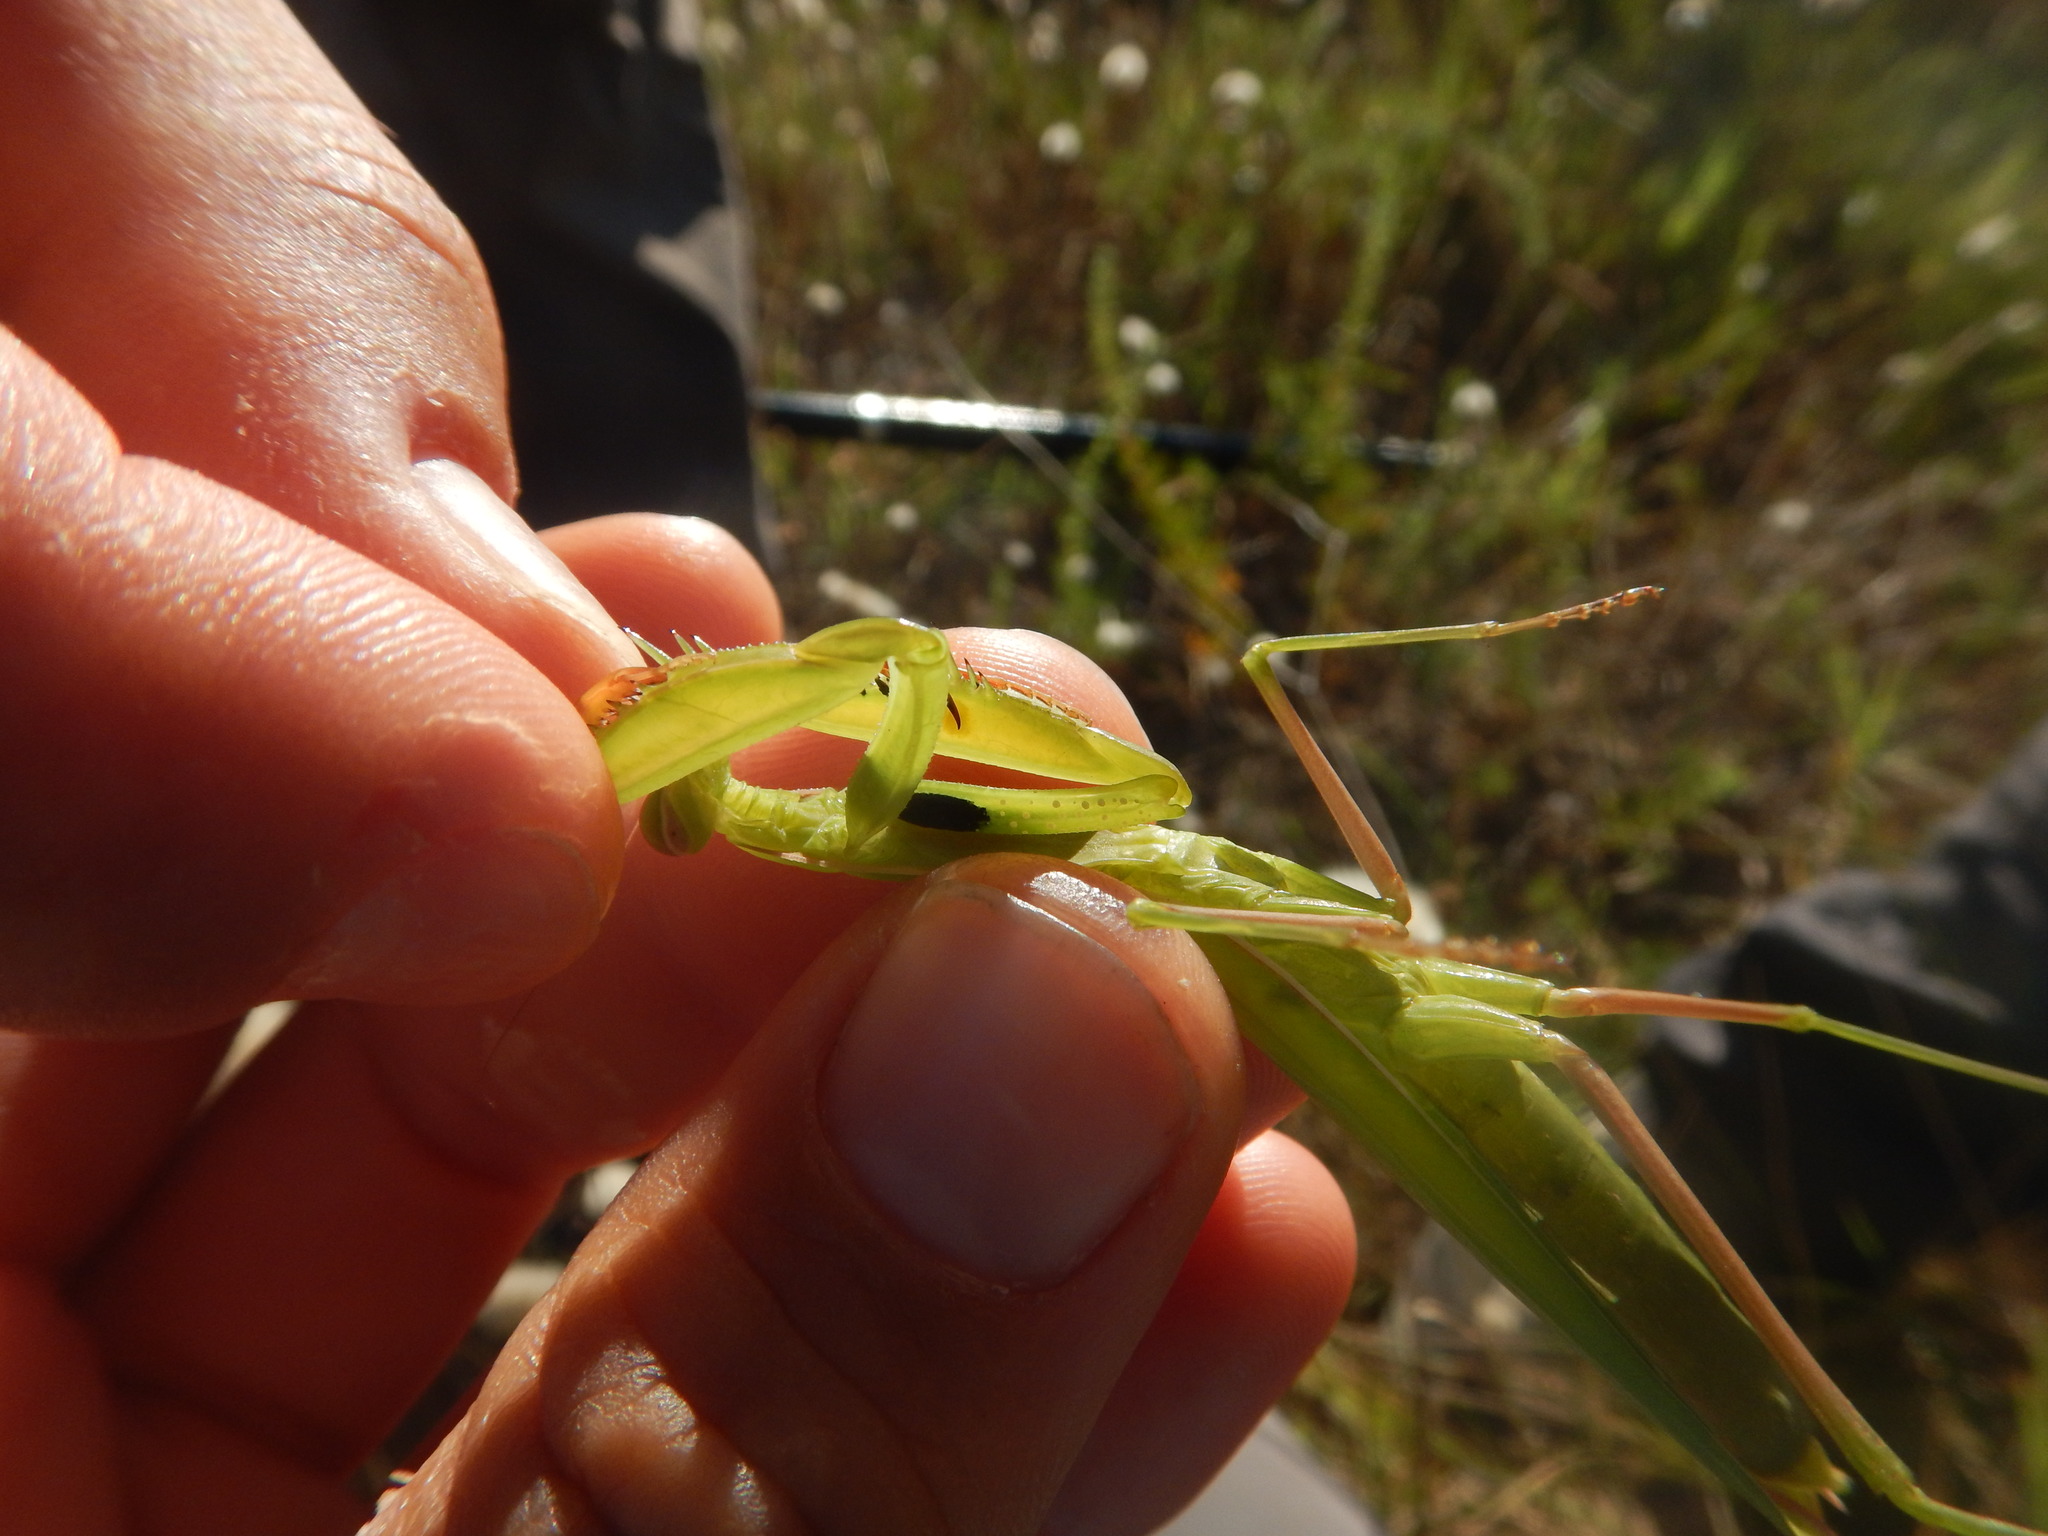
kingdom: Animalia
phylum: Arthropoda
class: Insecta
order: Mantodea
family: Mantidae
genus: Mantis
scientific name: Mantis religiosa
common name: Praying mantis
